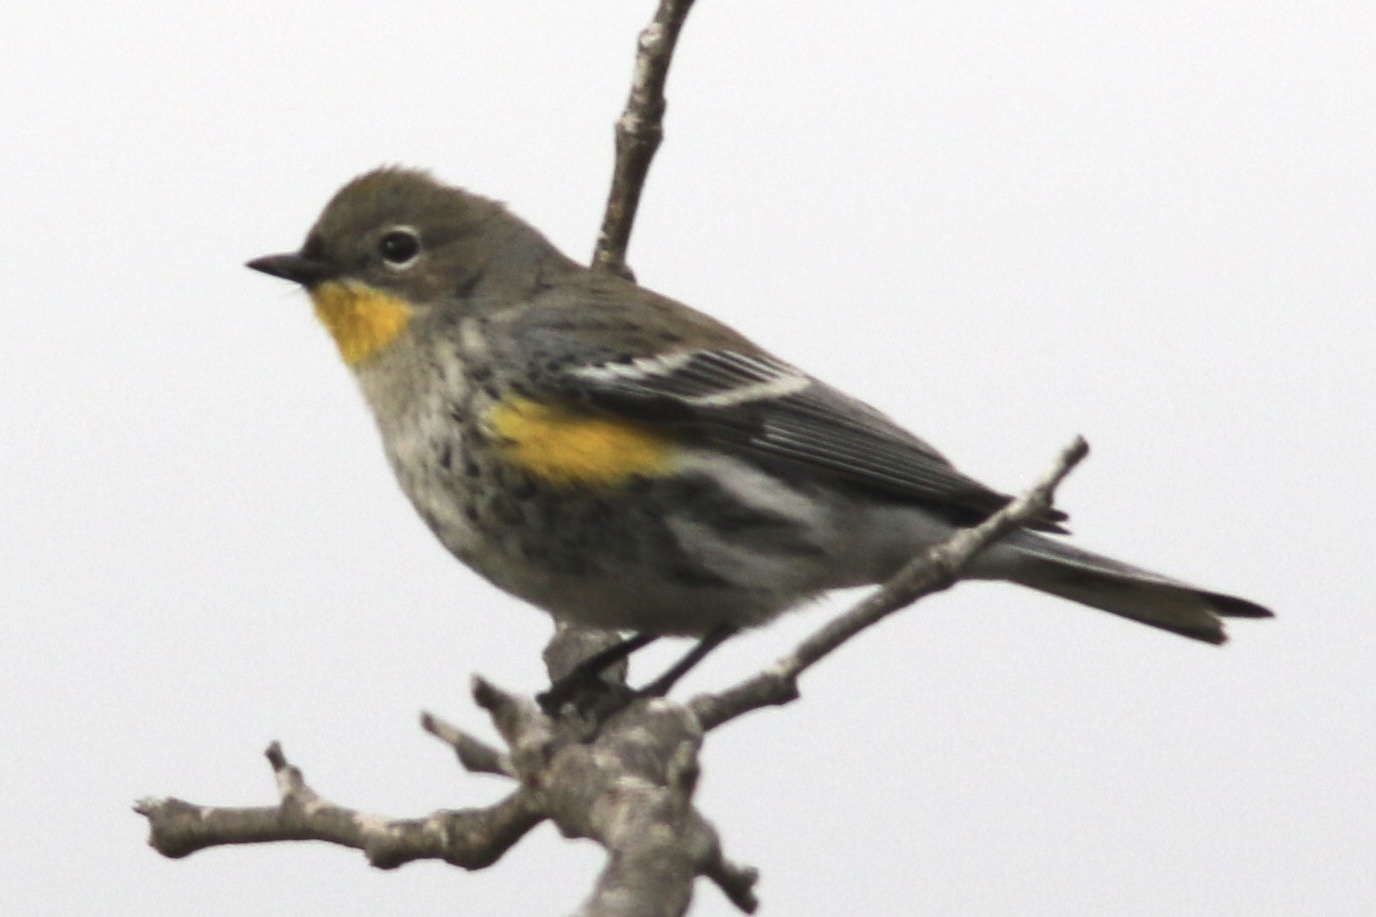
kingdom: Animalia
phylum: Chordata
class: Aves
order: Passeriformes
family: Parulidae
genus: Setophaga
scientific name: Setophaga coronata
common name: Myrtle warbler
